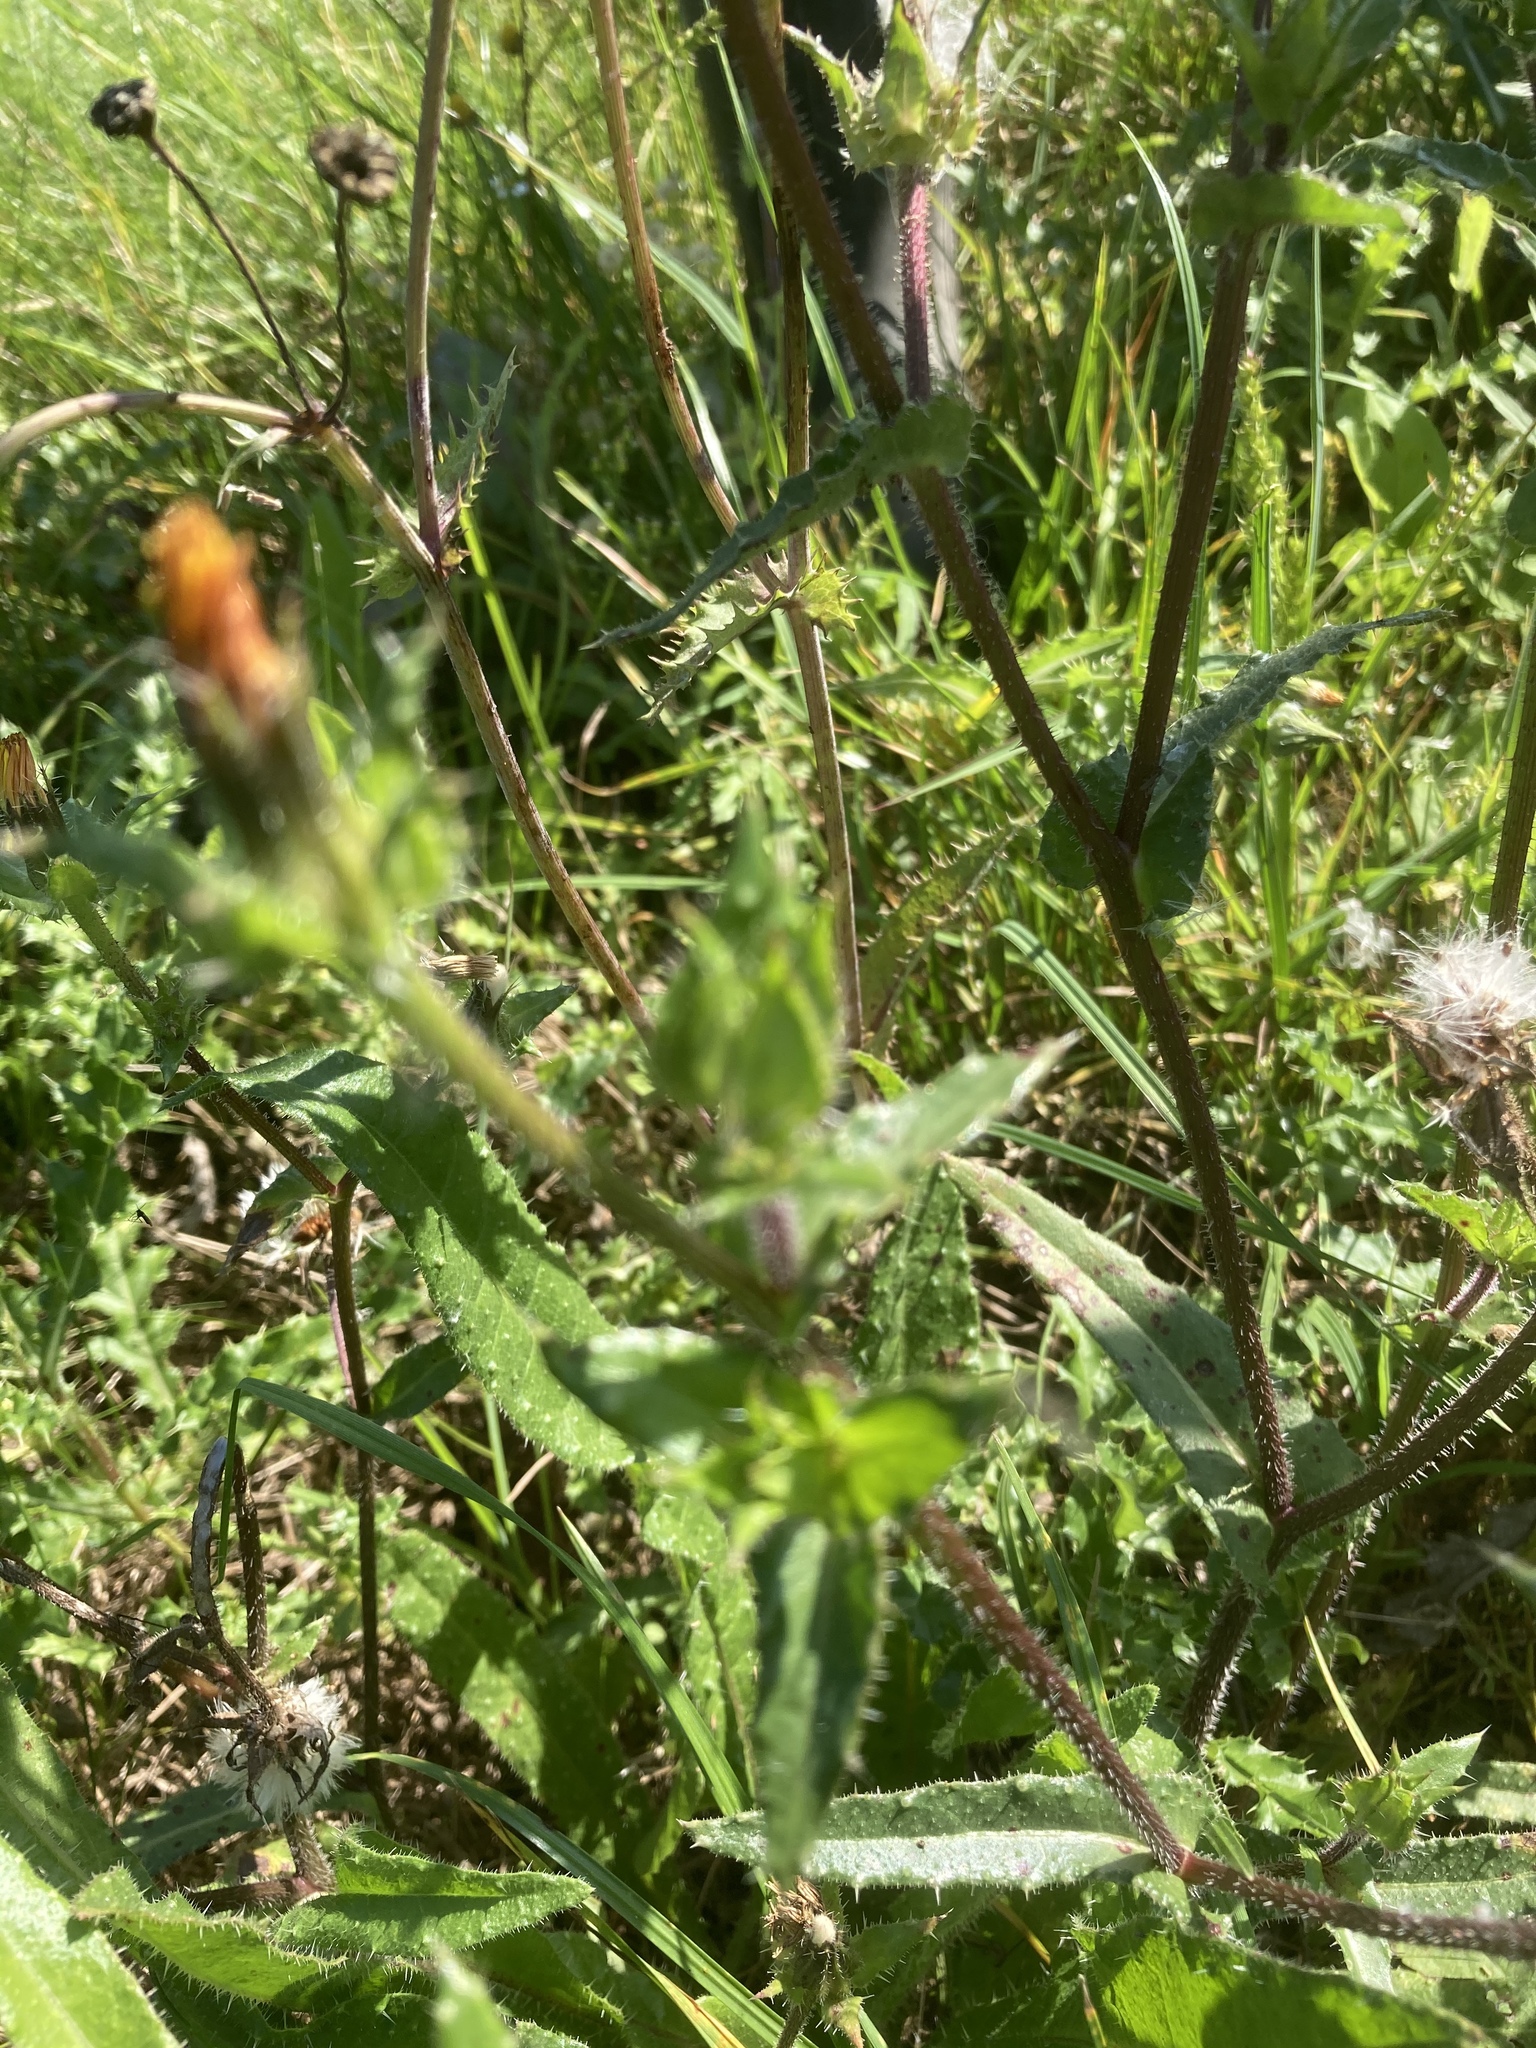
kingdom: Animalia
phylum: Arthropoda
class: Insecta
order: Diptera
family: Syrphidae
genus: Episyrphus
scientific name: Episyrphus balteatus
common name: Marmalade hoverfly
